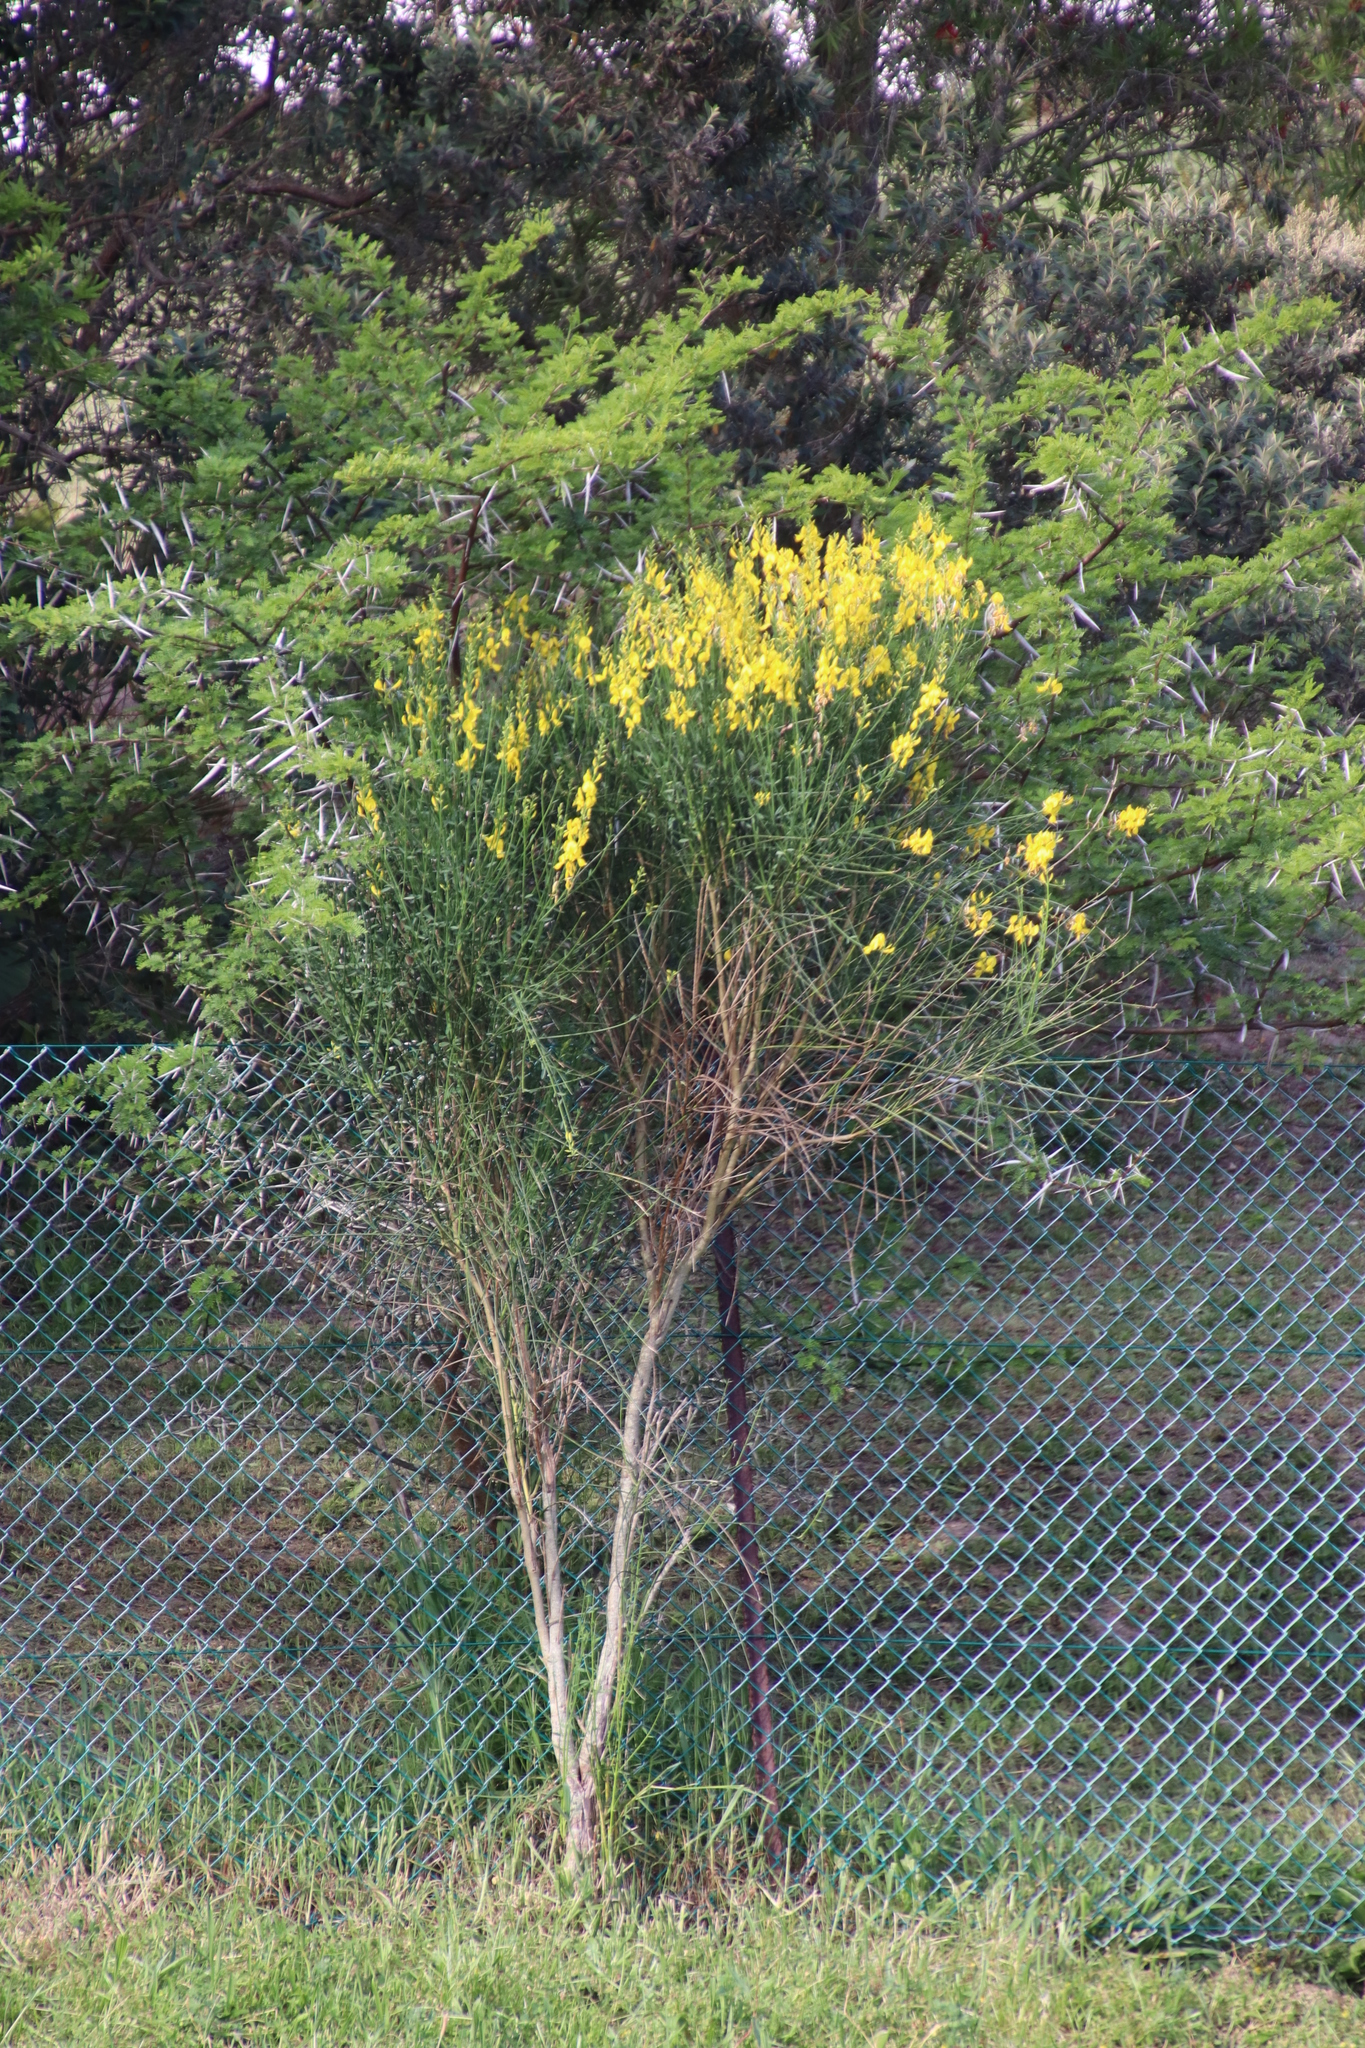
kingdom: Plantae
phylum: Tracheophyta
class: Magnoliopsida
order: Fabales
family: Fabaceae
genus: Spartium
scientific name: Spartium junceum
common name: Spanish broom
